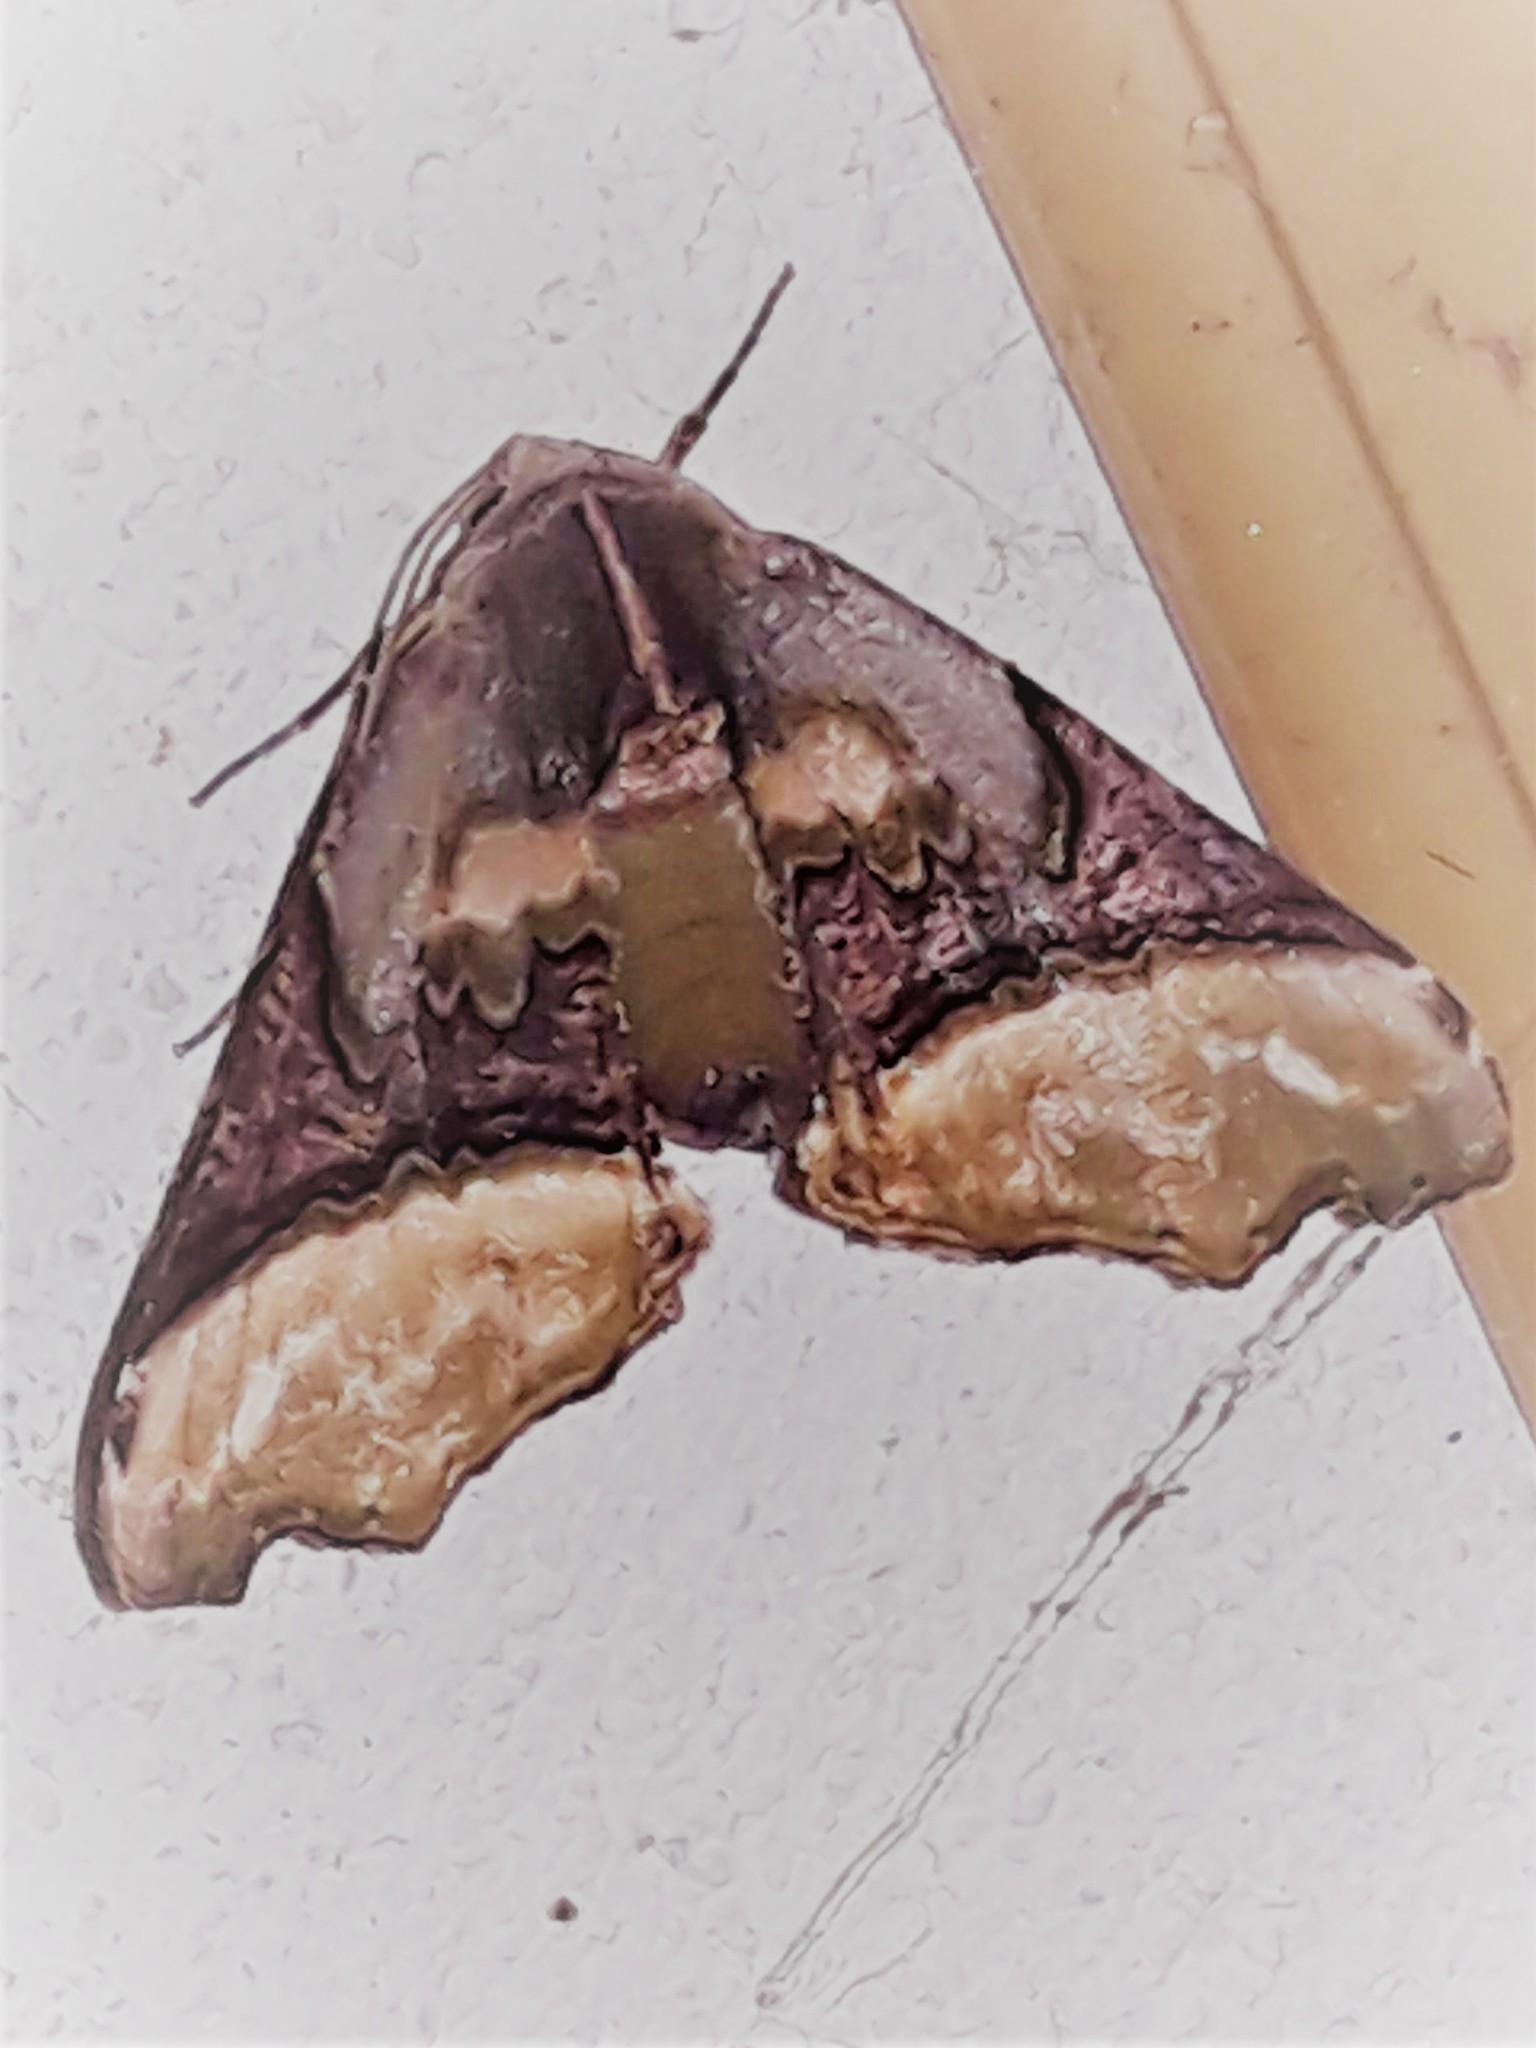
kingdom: Animalia
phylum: Arthropoda
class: Insecta
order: Lepidoptera
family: Geometridae
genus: Pero
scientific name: Pero costa
